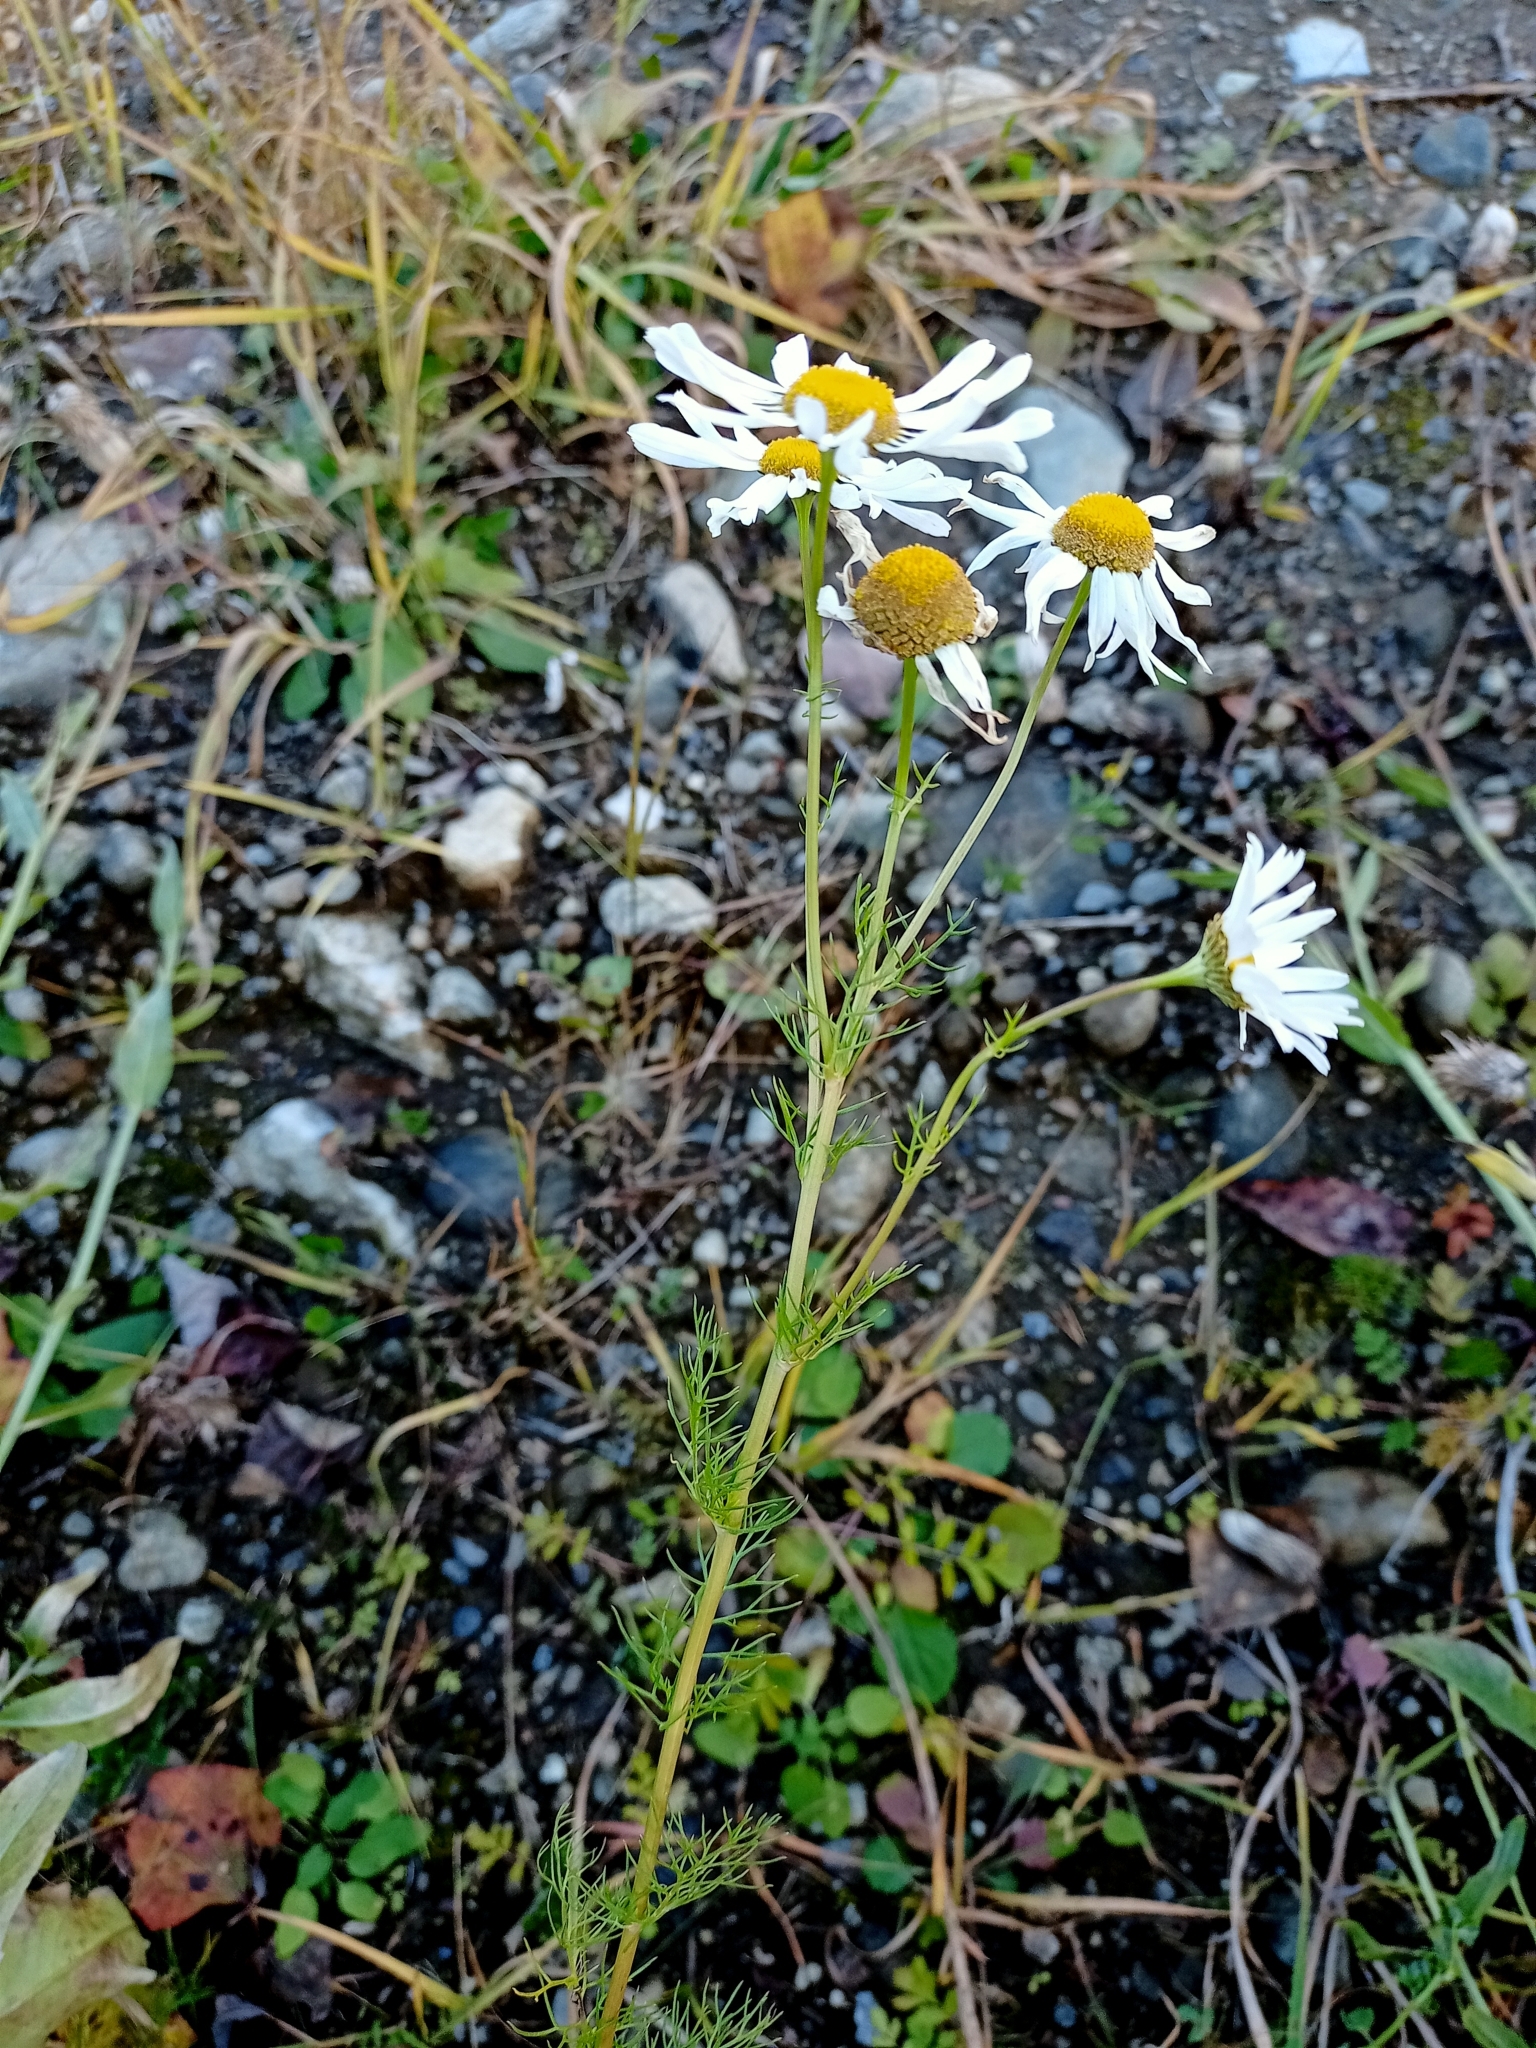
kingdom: Plantae
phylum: Tracheophyta
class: Magnoliopsida
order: Asterales
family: Asteraceae
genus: Tripleurospermum
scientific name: Tripleurospermum inodorum
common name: Scentless mayweed
